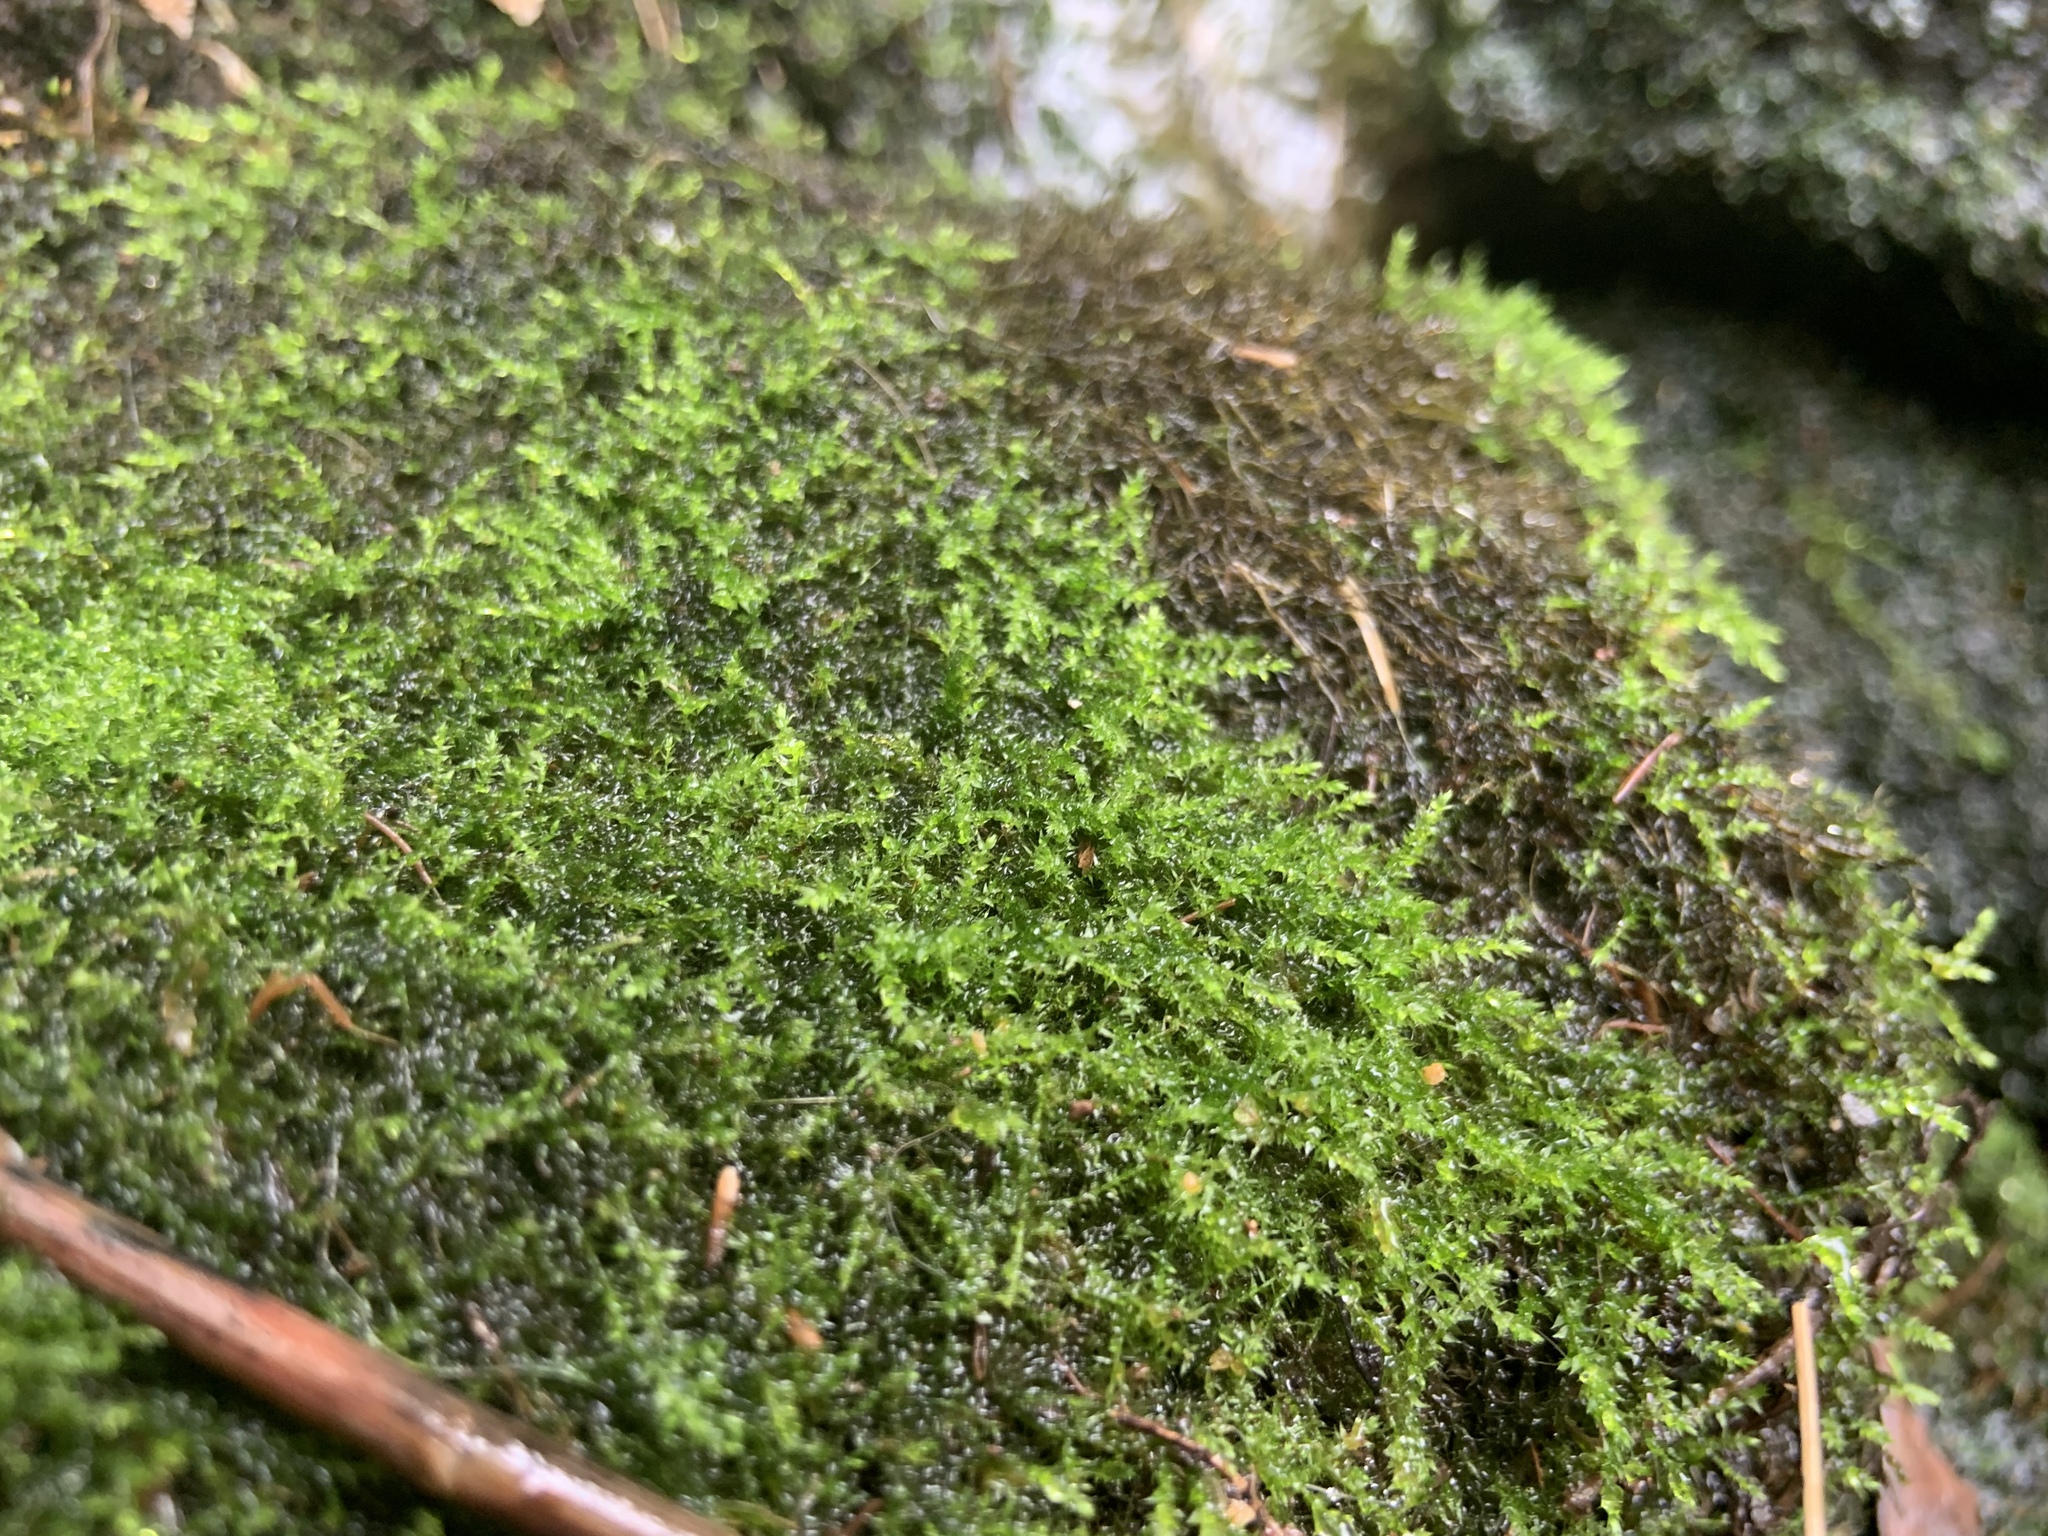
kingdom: Plantae
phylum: Bryophyta
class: Bryopsida
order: Hypnales
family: Amblystegiaceae
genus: Hygroamblystegium
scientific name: Hygroamblystegium humile
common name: Constricted feather-moss
